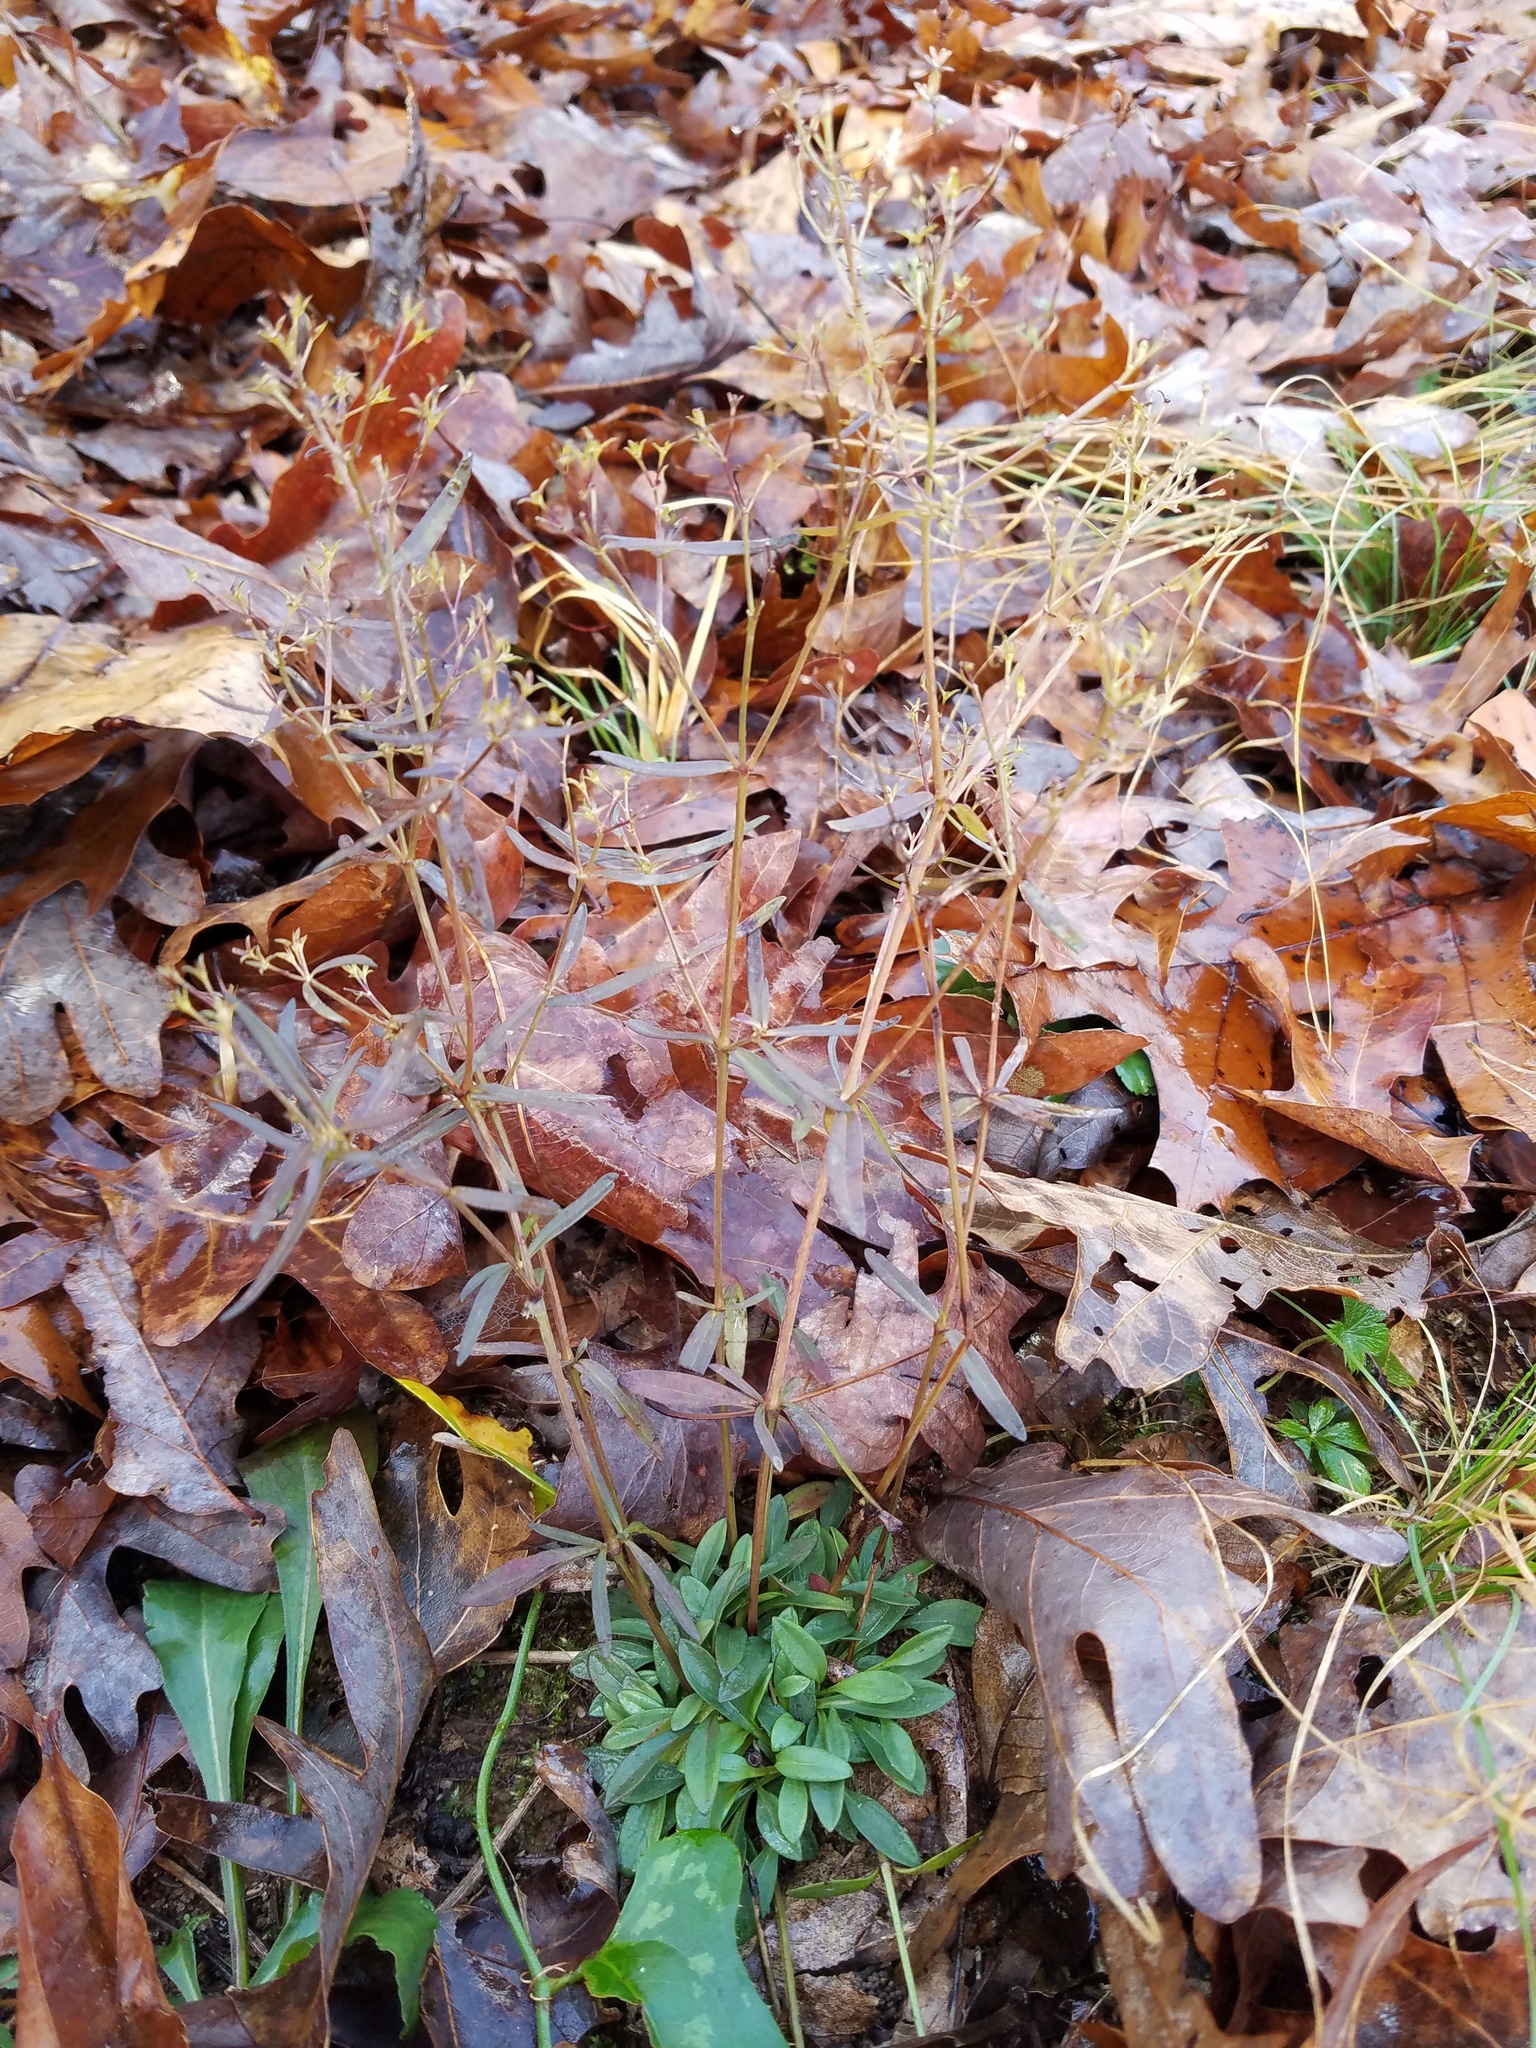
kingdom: Plantae
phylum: Tracheophyta
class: Magnoliopsida
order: Gentianales
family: Rubiaceae
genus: Houstonia
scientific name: Houstonia longifolia
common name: Long-leaved bluets
